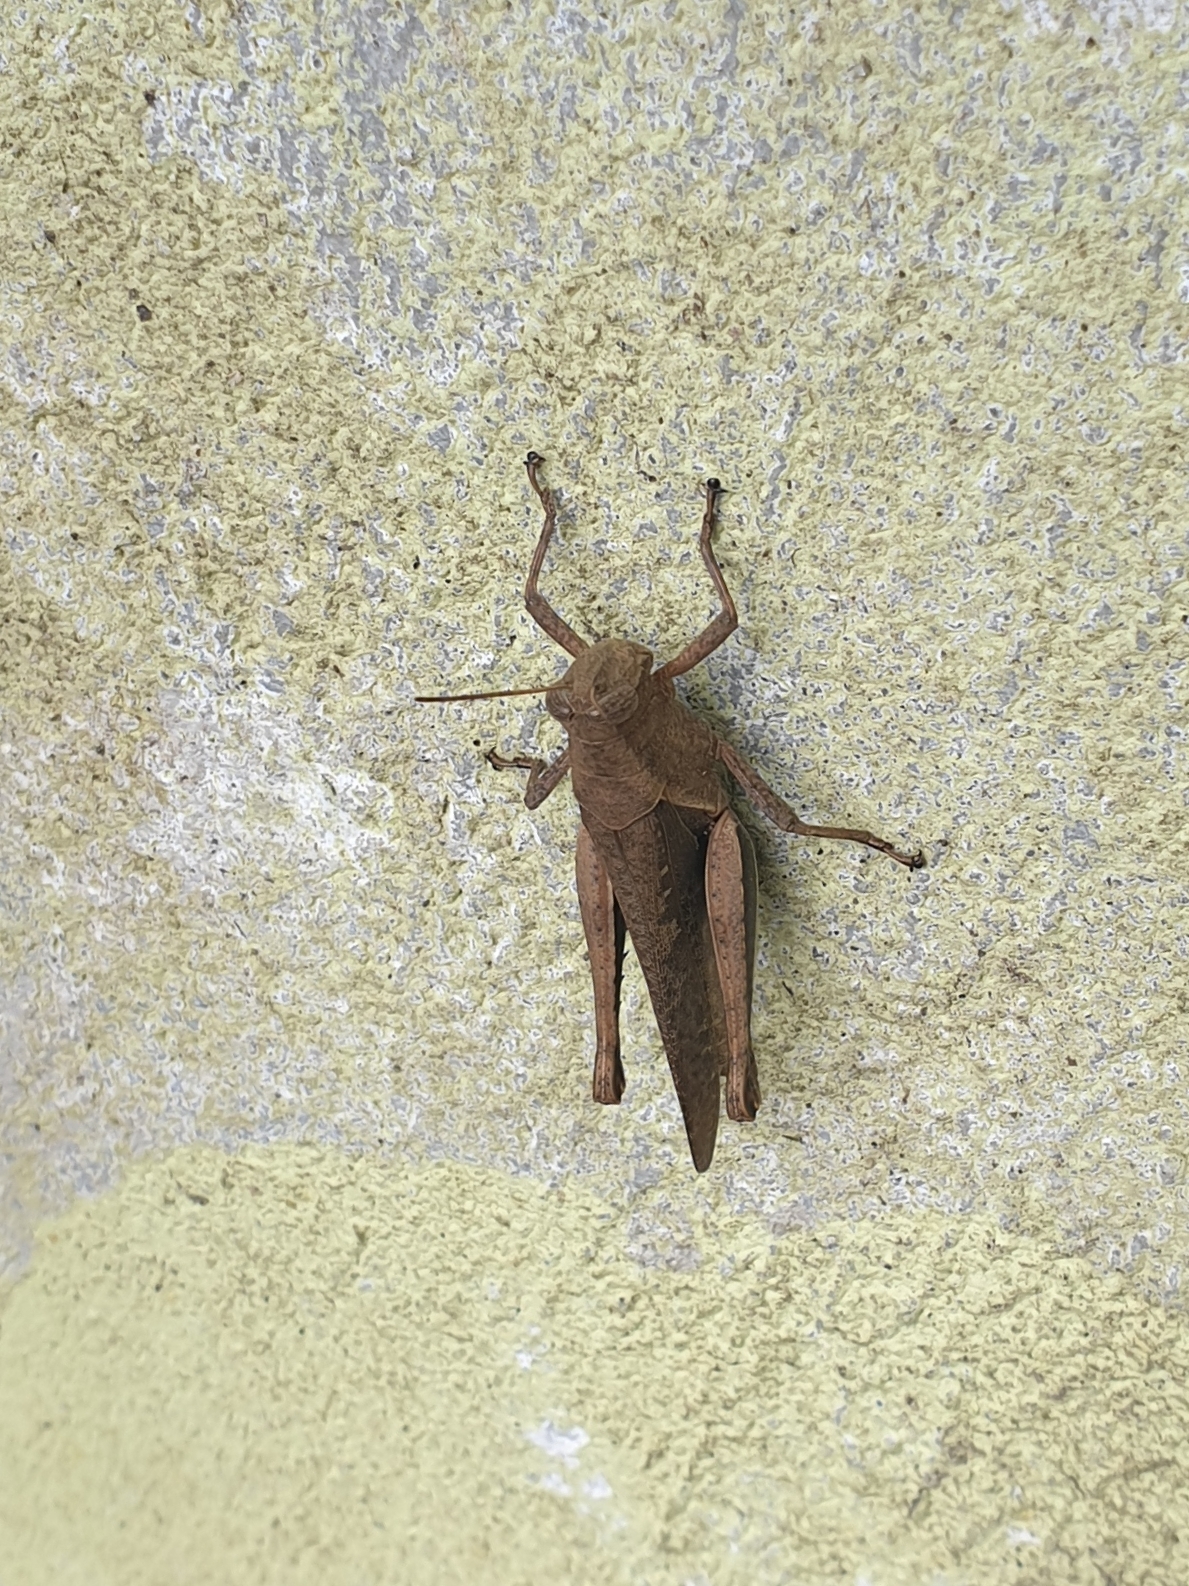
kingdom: Animalia
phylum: Arthropoda
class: Insecta
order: Orthoptera
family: Acrididae
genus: Abracris
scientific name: Abracris flavolineata
